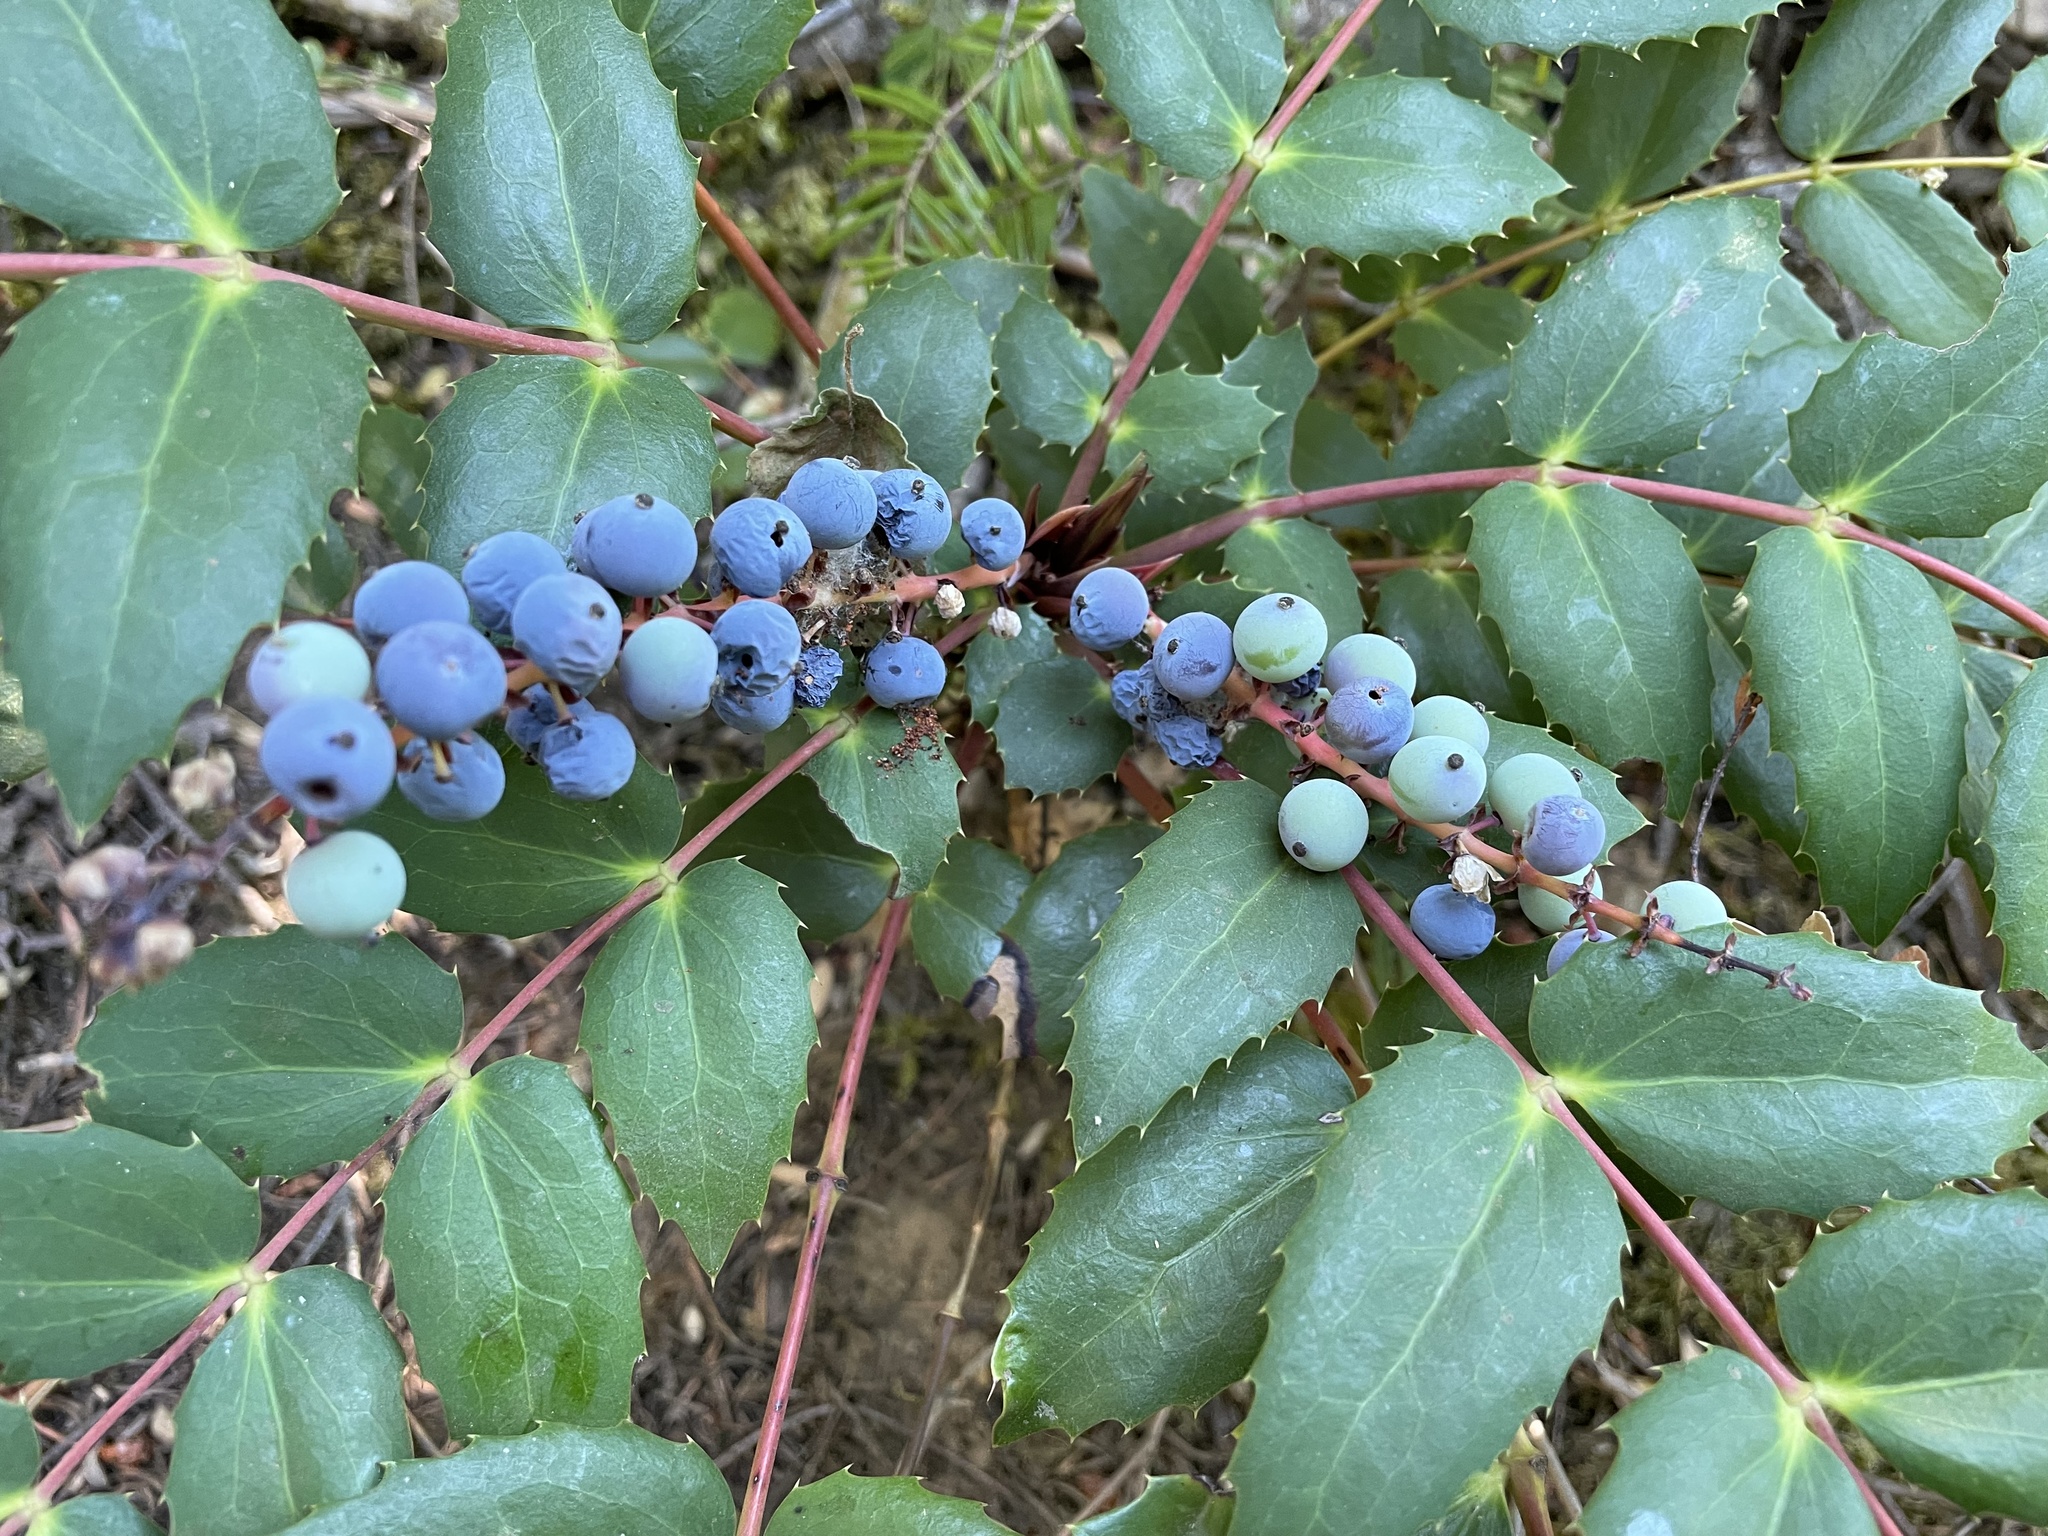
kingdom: Plantae
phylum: Tracheophyta
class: Magnoliopsida
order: Ranunculales
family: Berberidaceae
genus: Mahonia
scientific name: Mahonia nervosa
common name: Cascade oregon-grape
